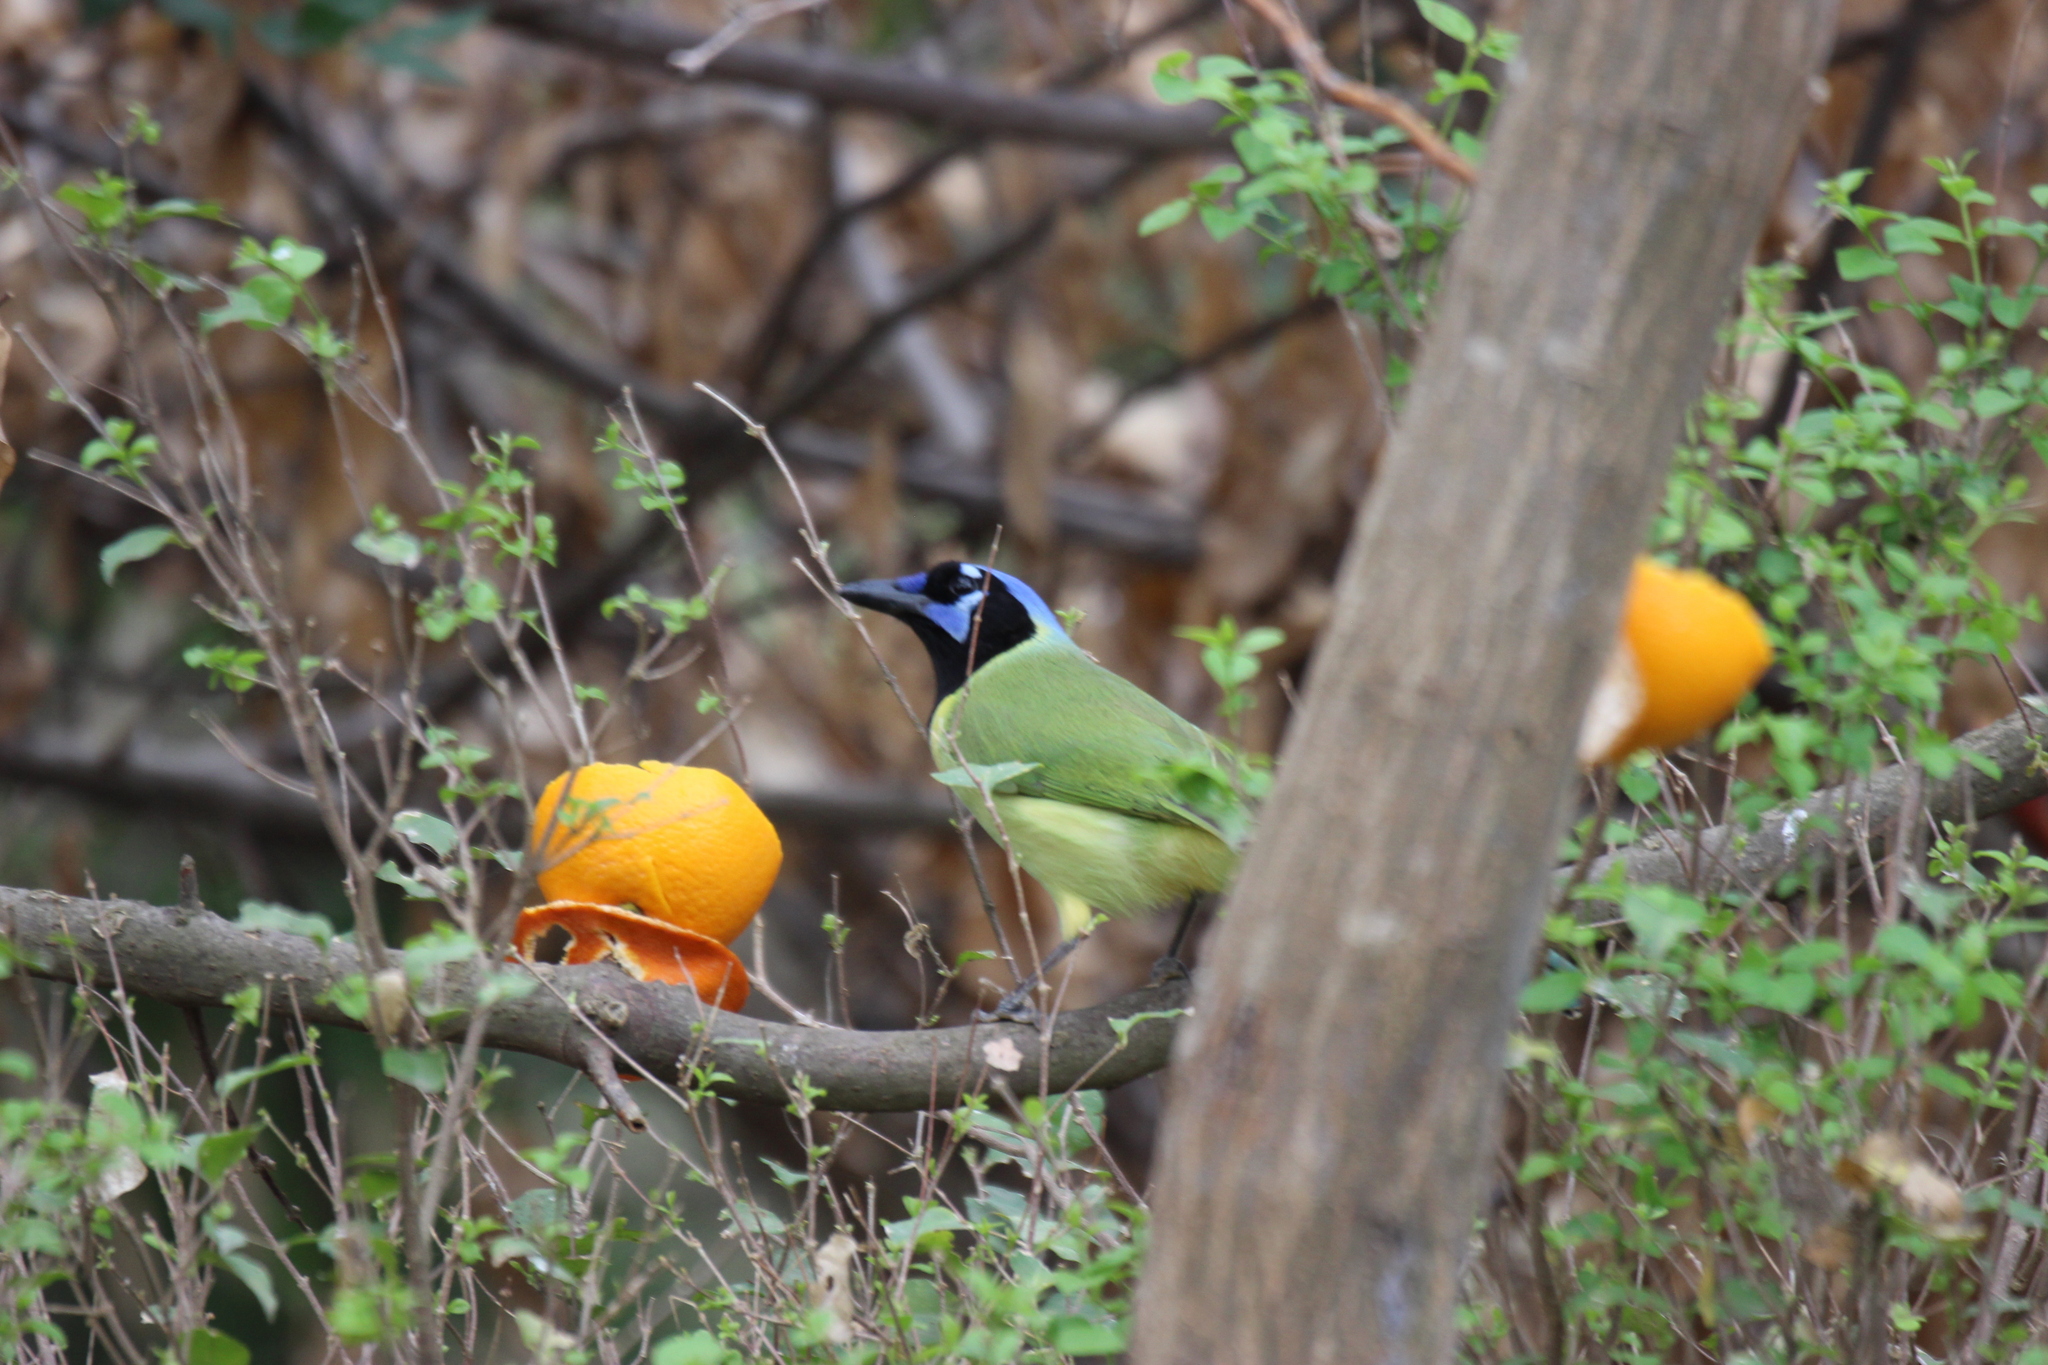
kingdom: Animalia
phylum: Chordata
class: Aves
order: Passeriformes
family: Corvidae
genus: Cyanocorax
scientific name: Cyanocorax yncas
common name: Green jay
